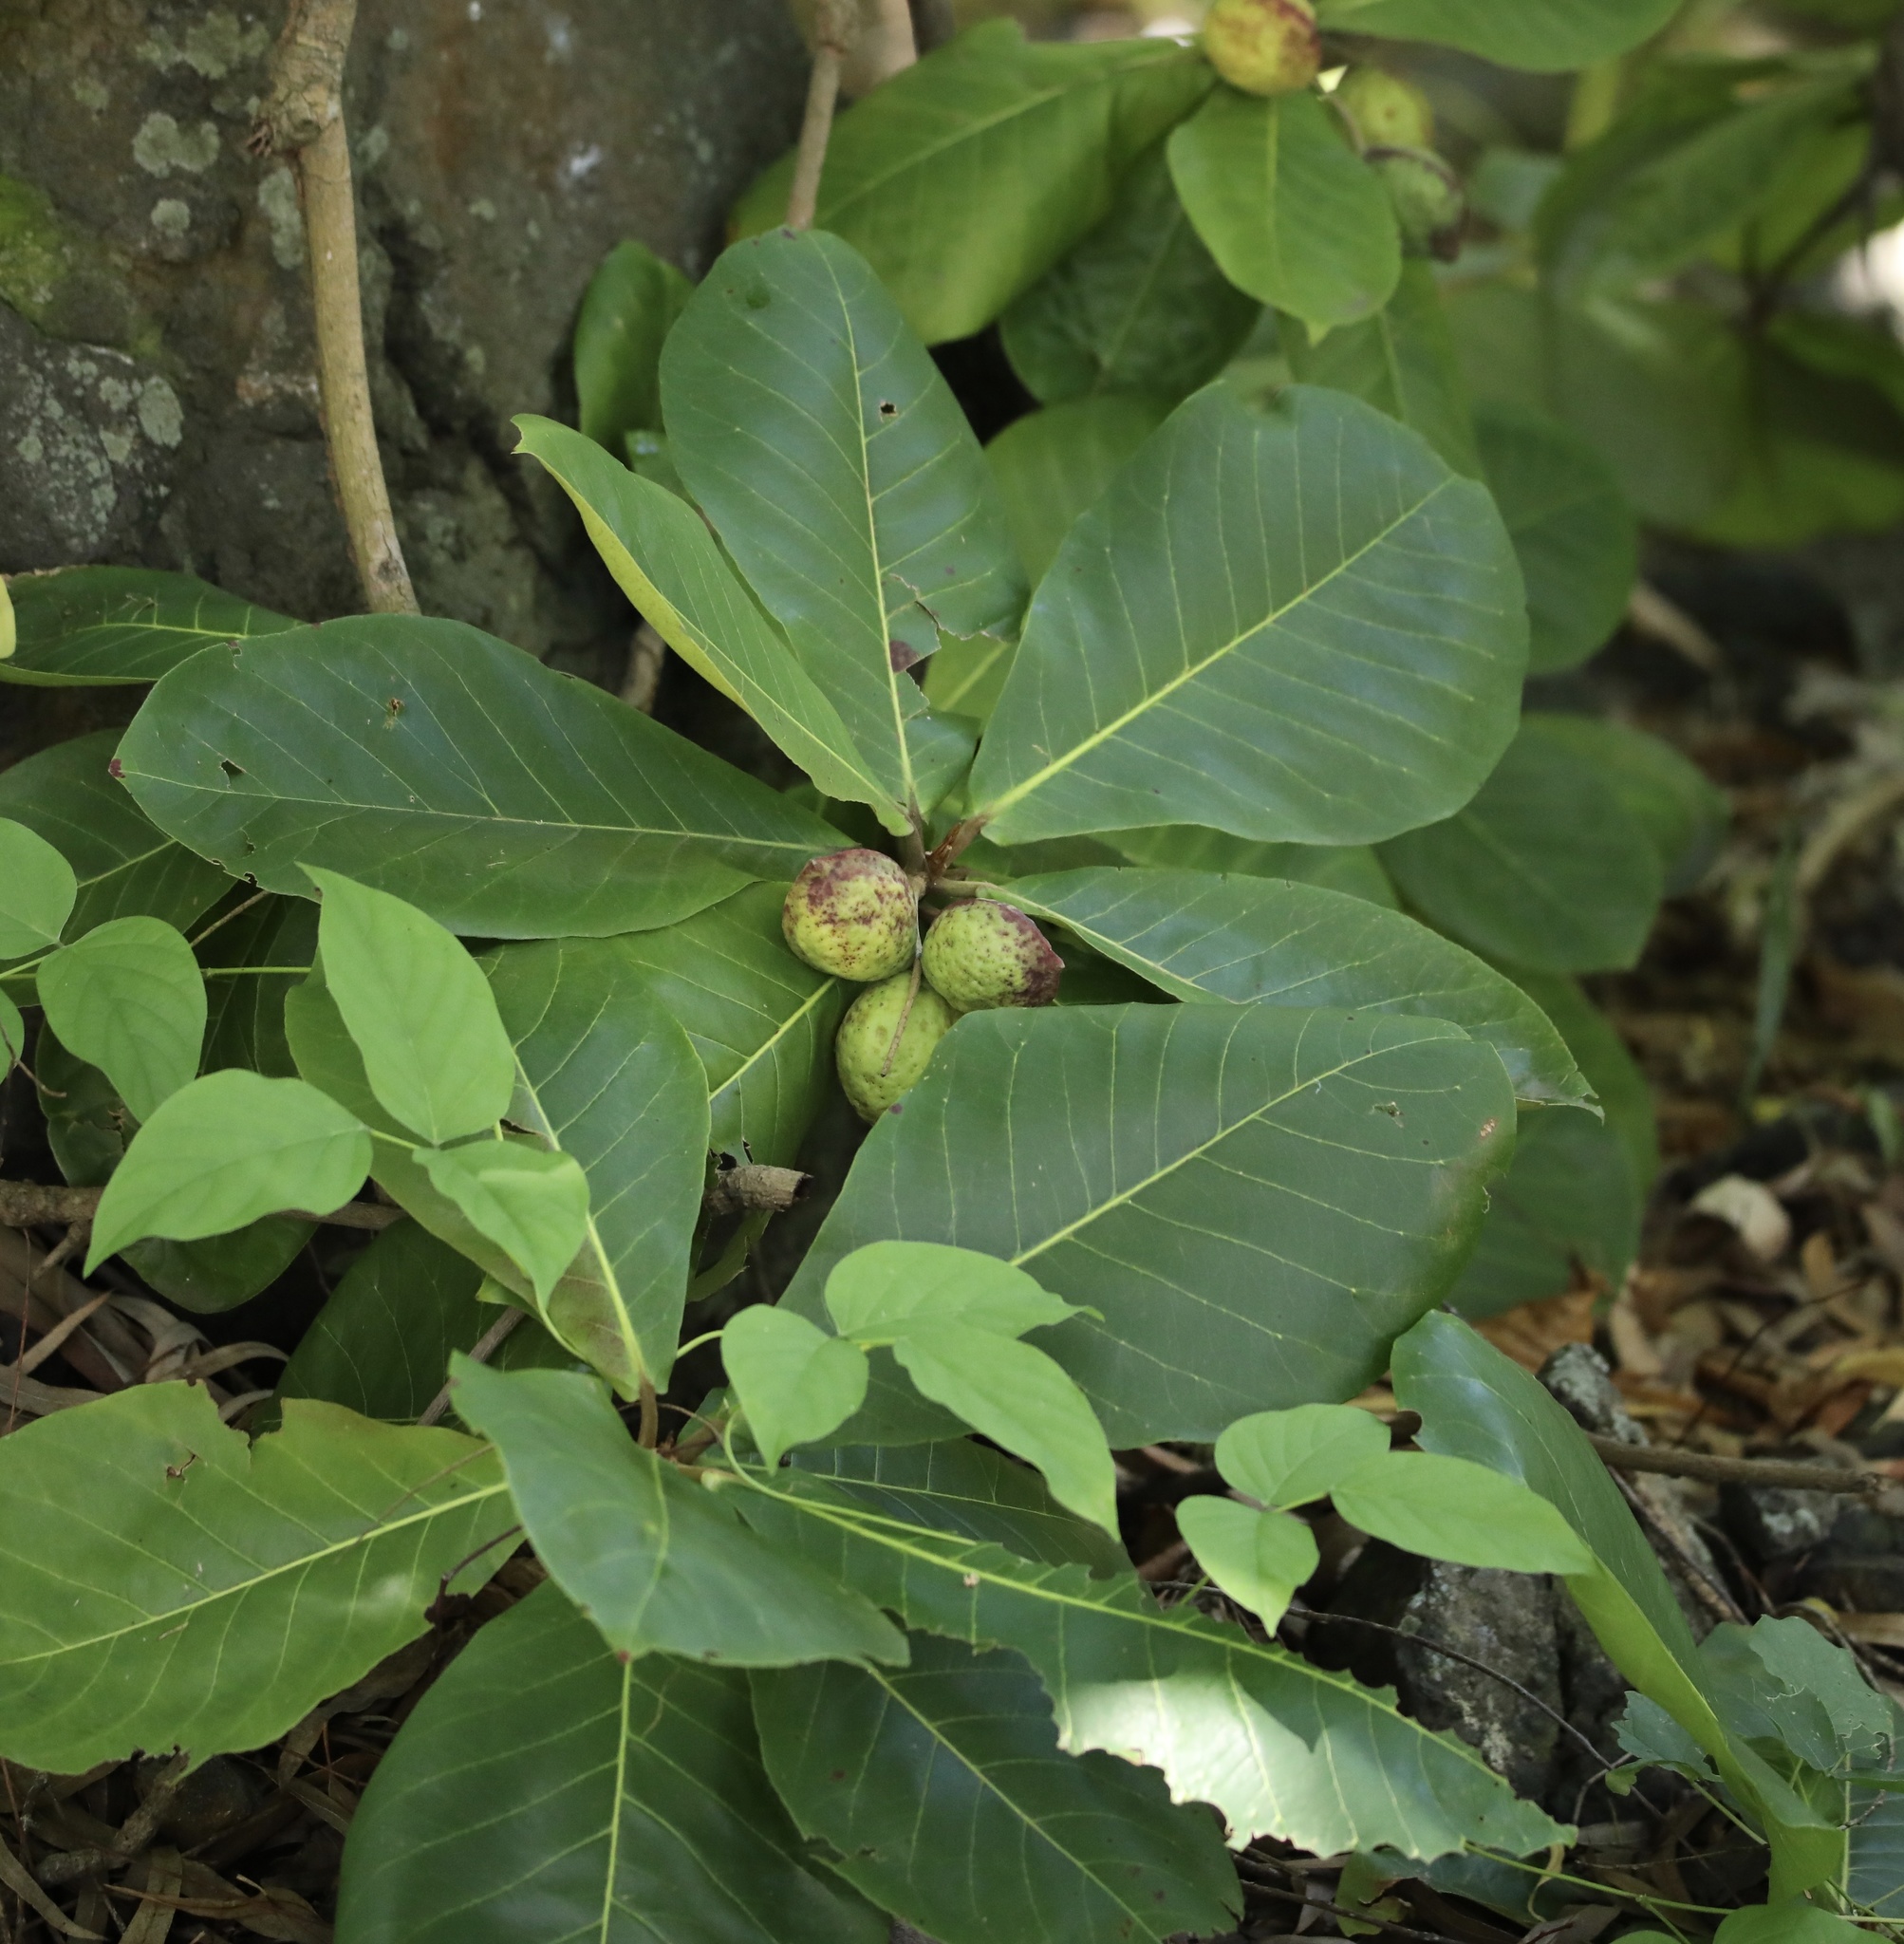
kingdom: Plantae
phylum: Tracheophyta
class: Magnoliopsida
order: Myrtales
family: Combretaceae
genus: Terminalia
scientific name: Terminalia catappa
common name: Tropical almond
